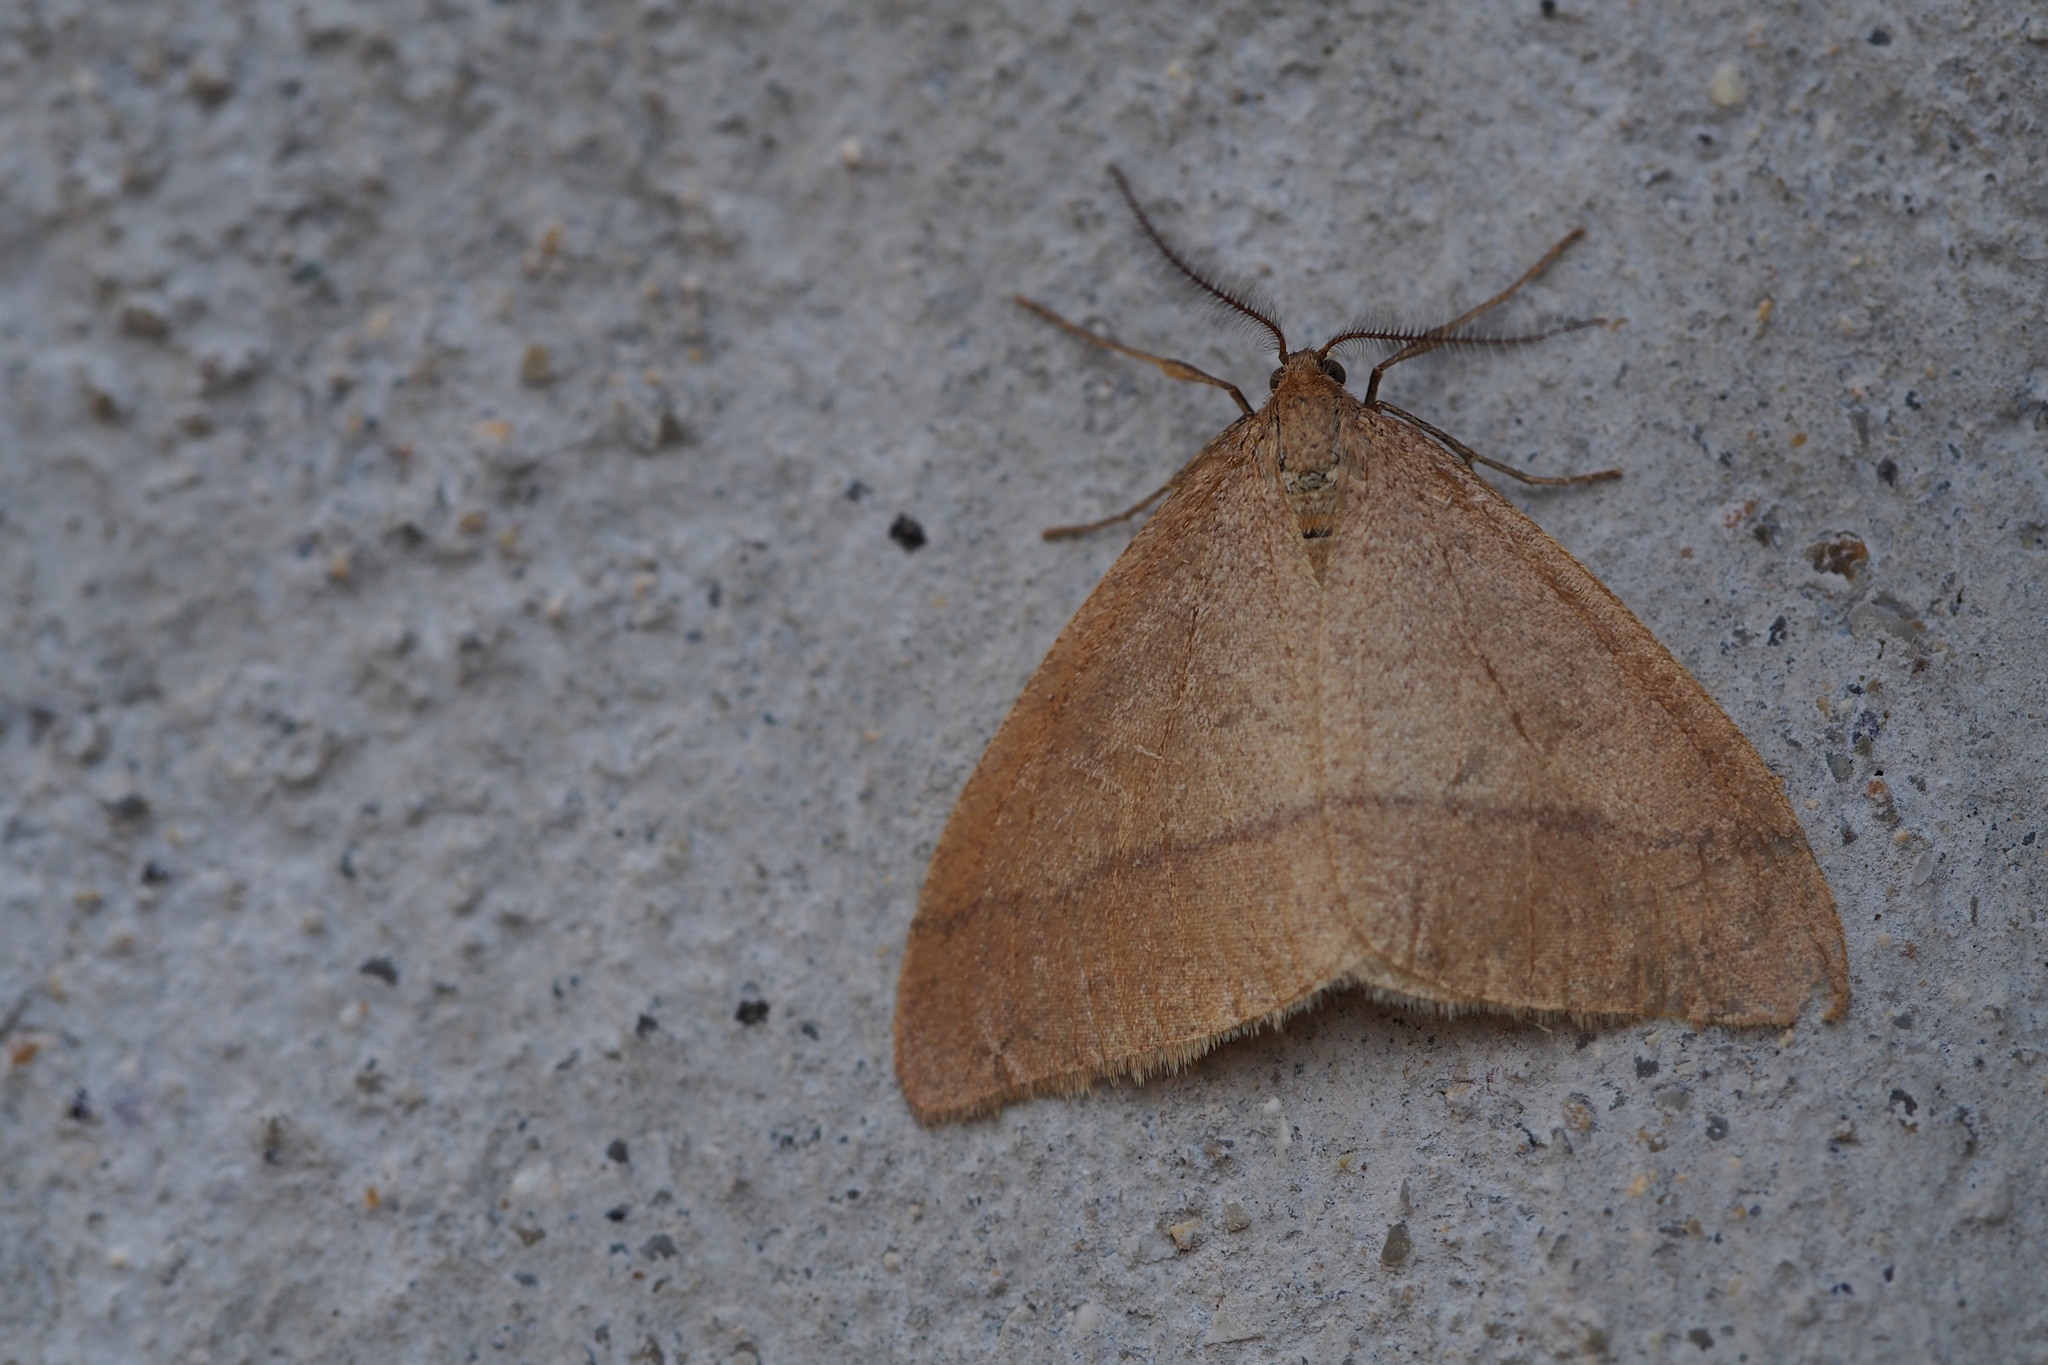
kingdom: Animalia
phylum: Arthropoda
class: Insecta
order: Lepidoptera
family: Geometridae
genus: Pachyerannis
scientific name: Pachyerannis obliquaria
